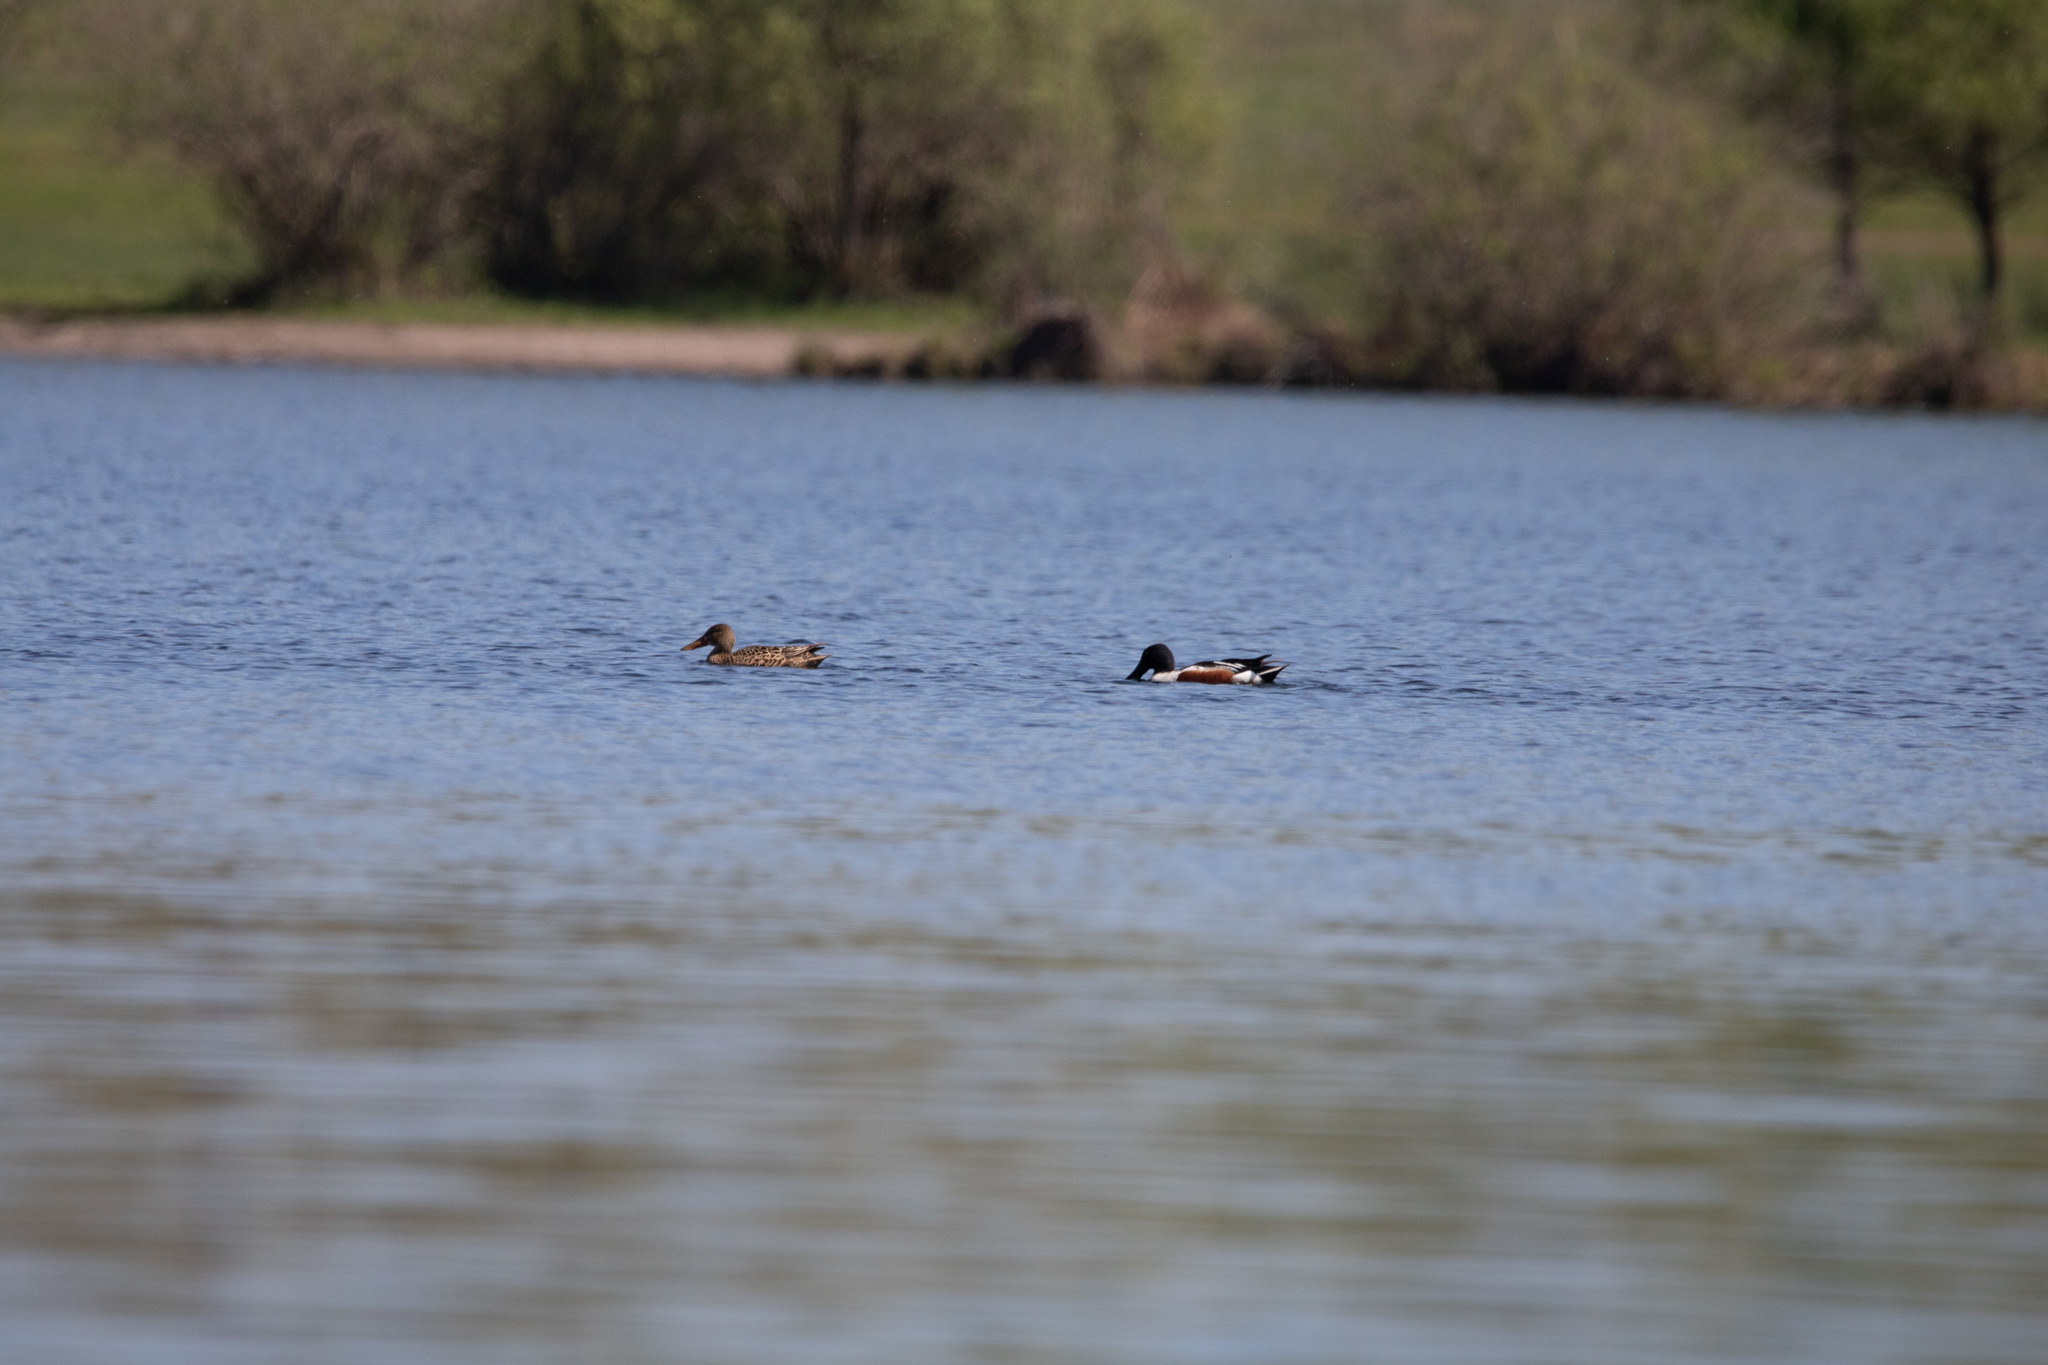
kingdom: Animalia
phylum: Chordata
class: Aves
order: Anseriformes
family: Anatidae
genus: Spatula
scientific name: Spatula clypeata
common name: Northern shoveler
